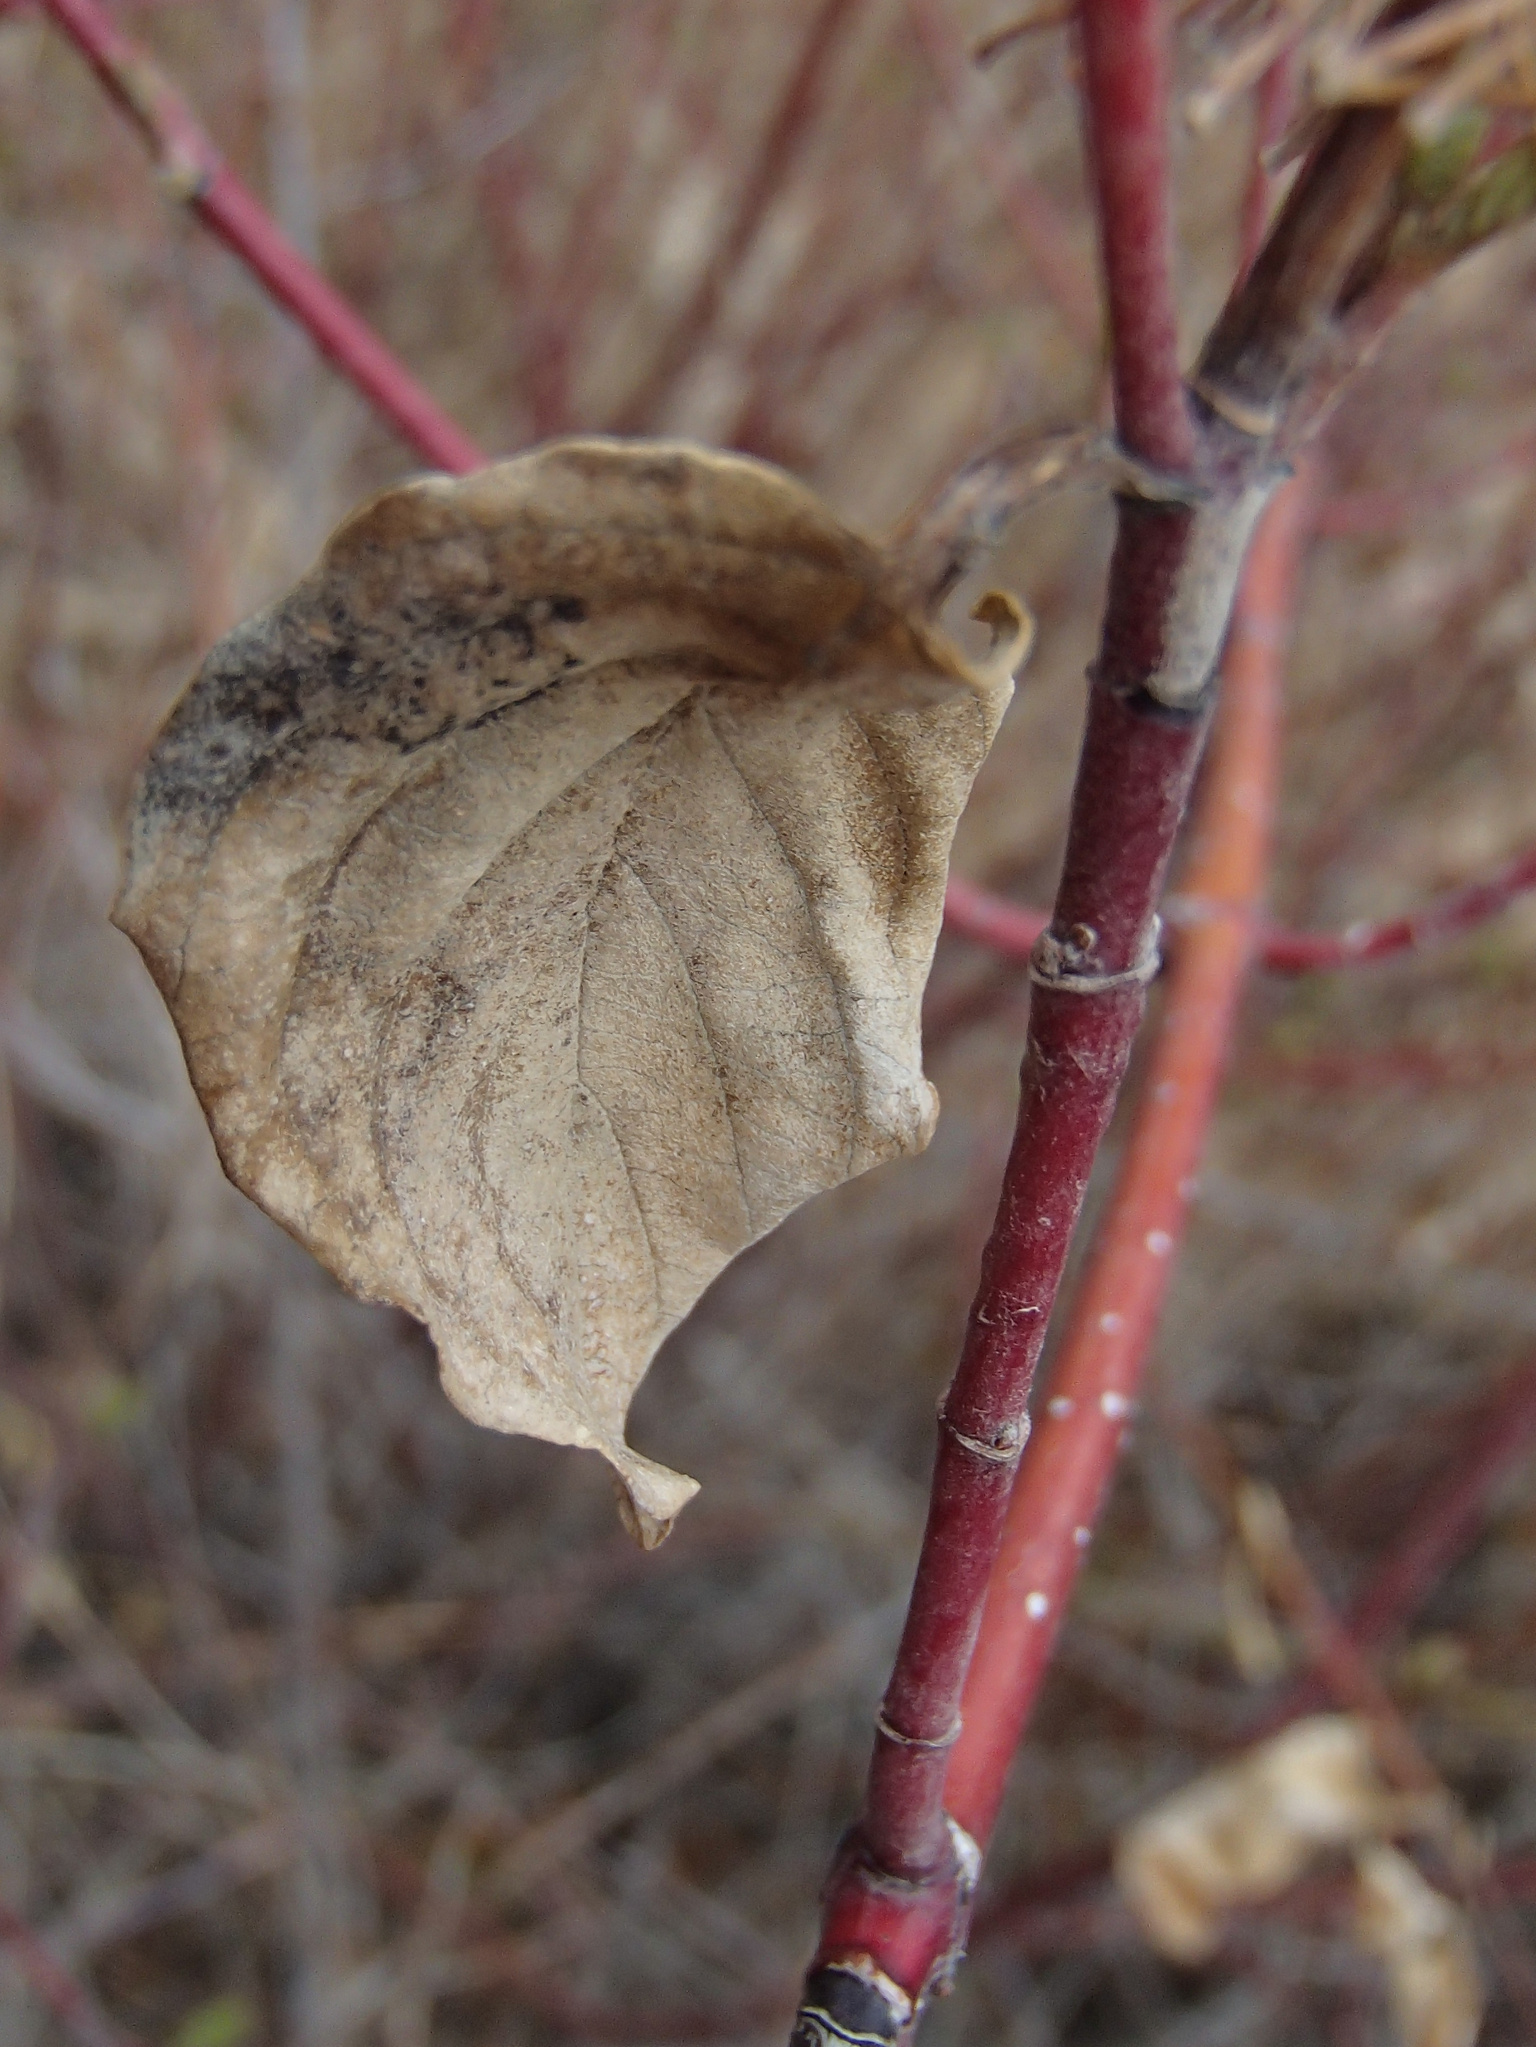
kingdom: Plantae
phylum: Tracheophyta
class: Magnoliopsida
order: Cornales
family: Cornaceae
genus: Cornus
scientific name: Cornus sericea
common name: Red-osier dogwood
